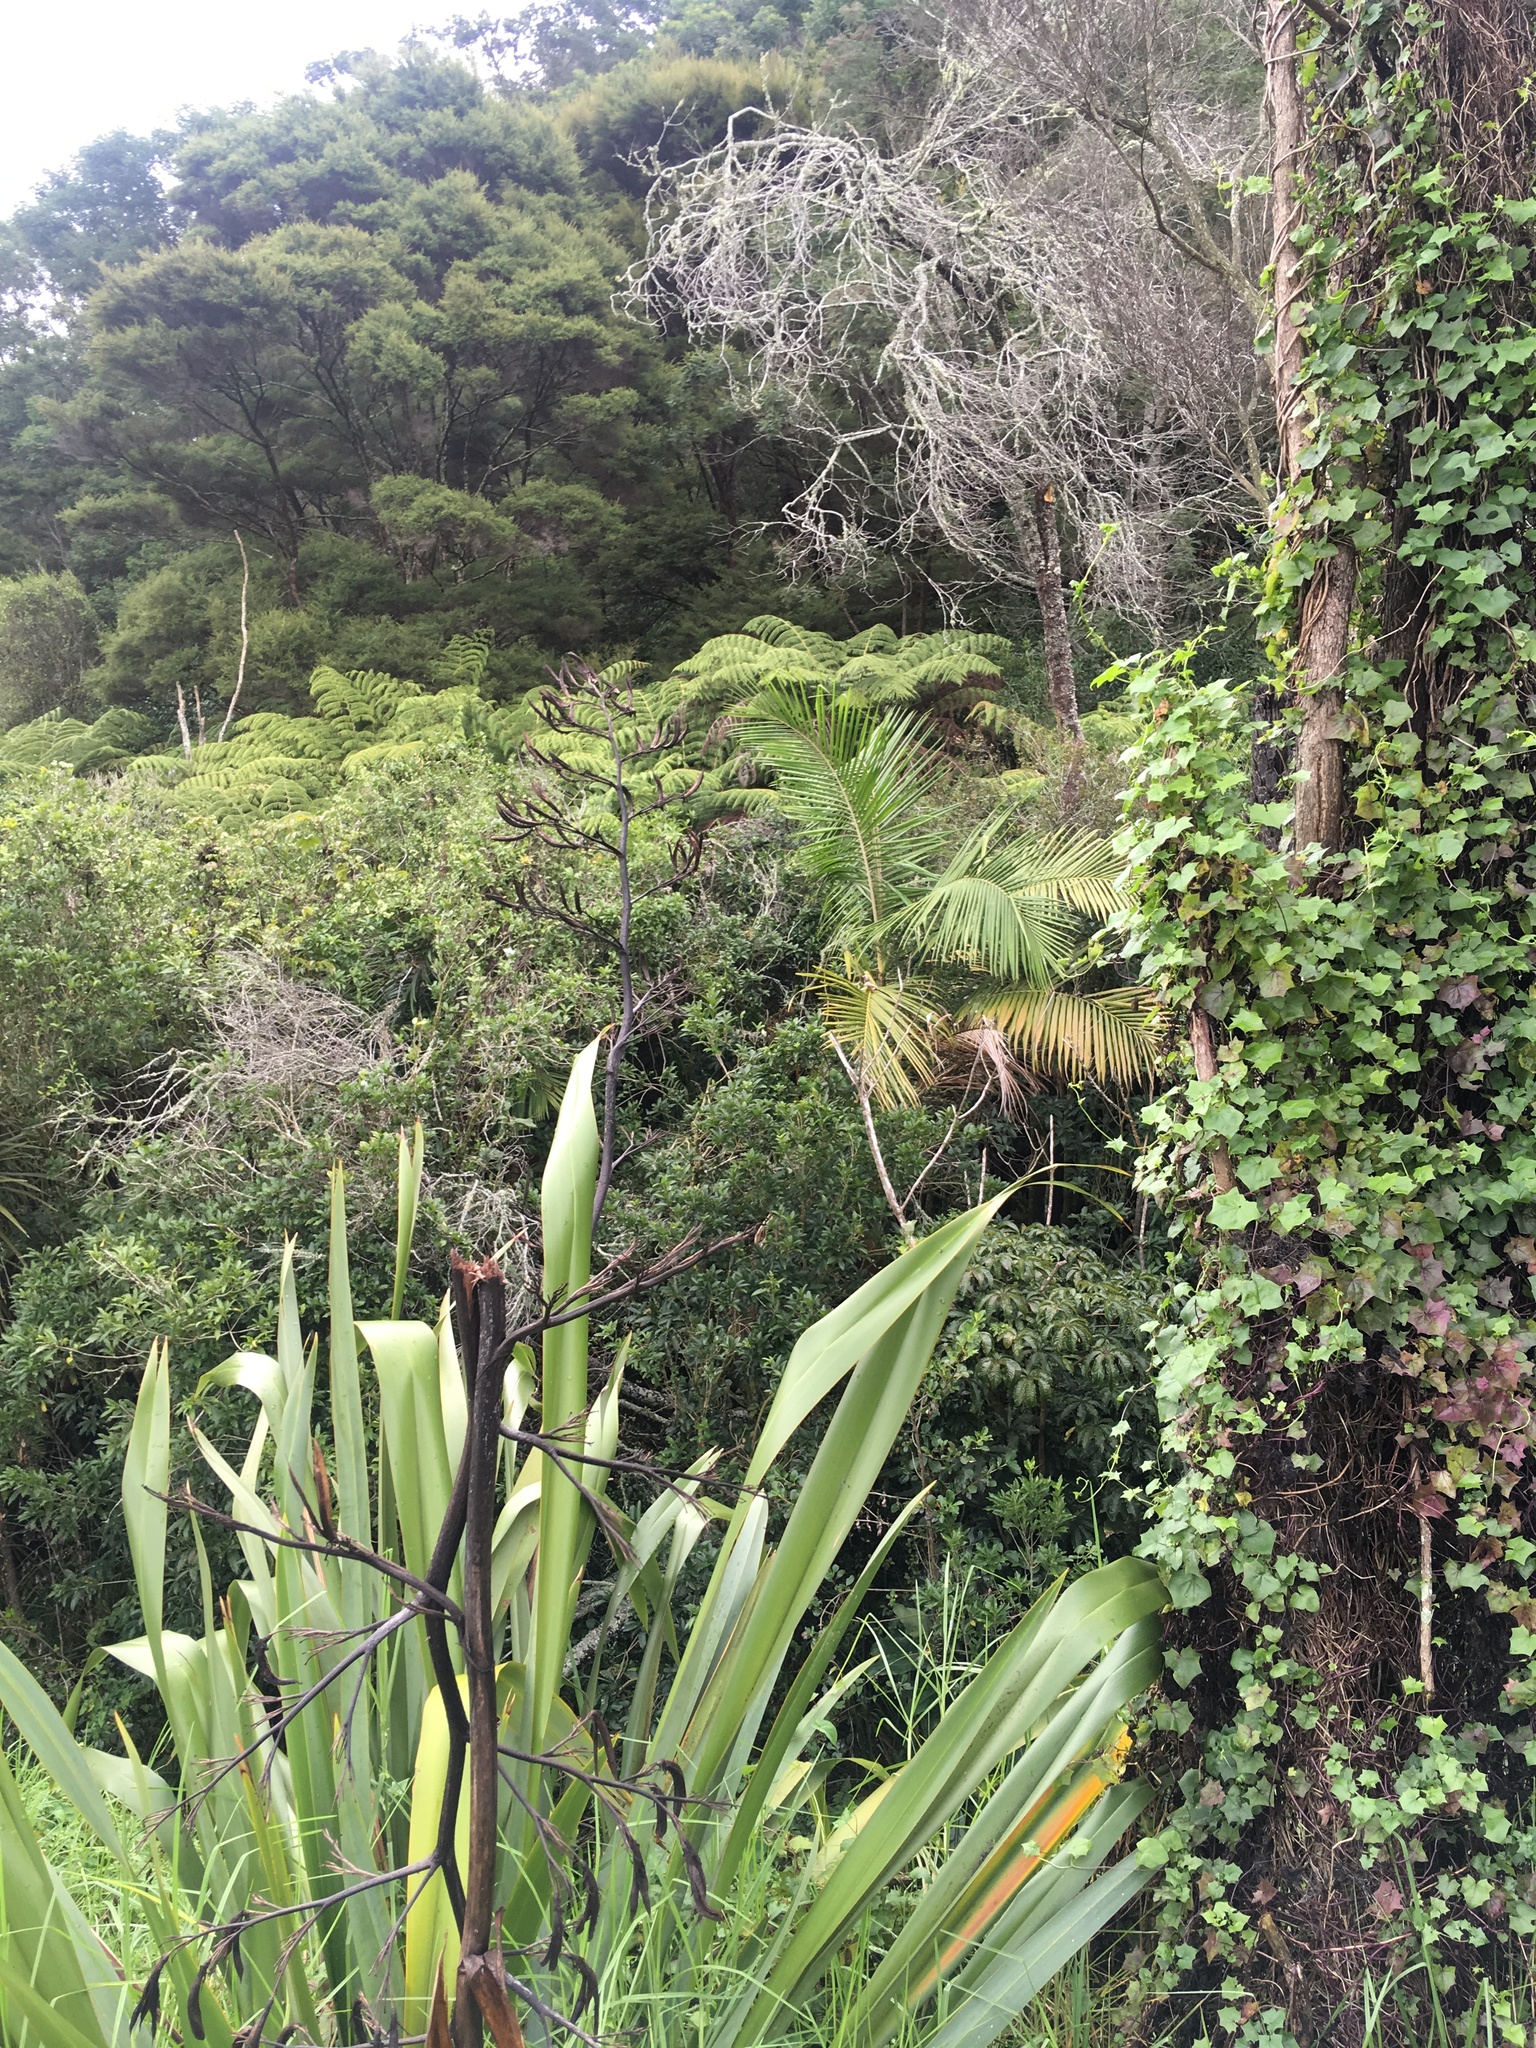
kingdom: Plantae
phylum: Tracheophyta
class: Magnoliopsida
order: Asterales
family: Asteraceae
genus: Delairea
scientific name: Delairea odorata
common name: Cape-ivy
